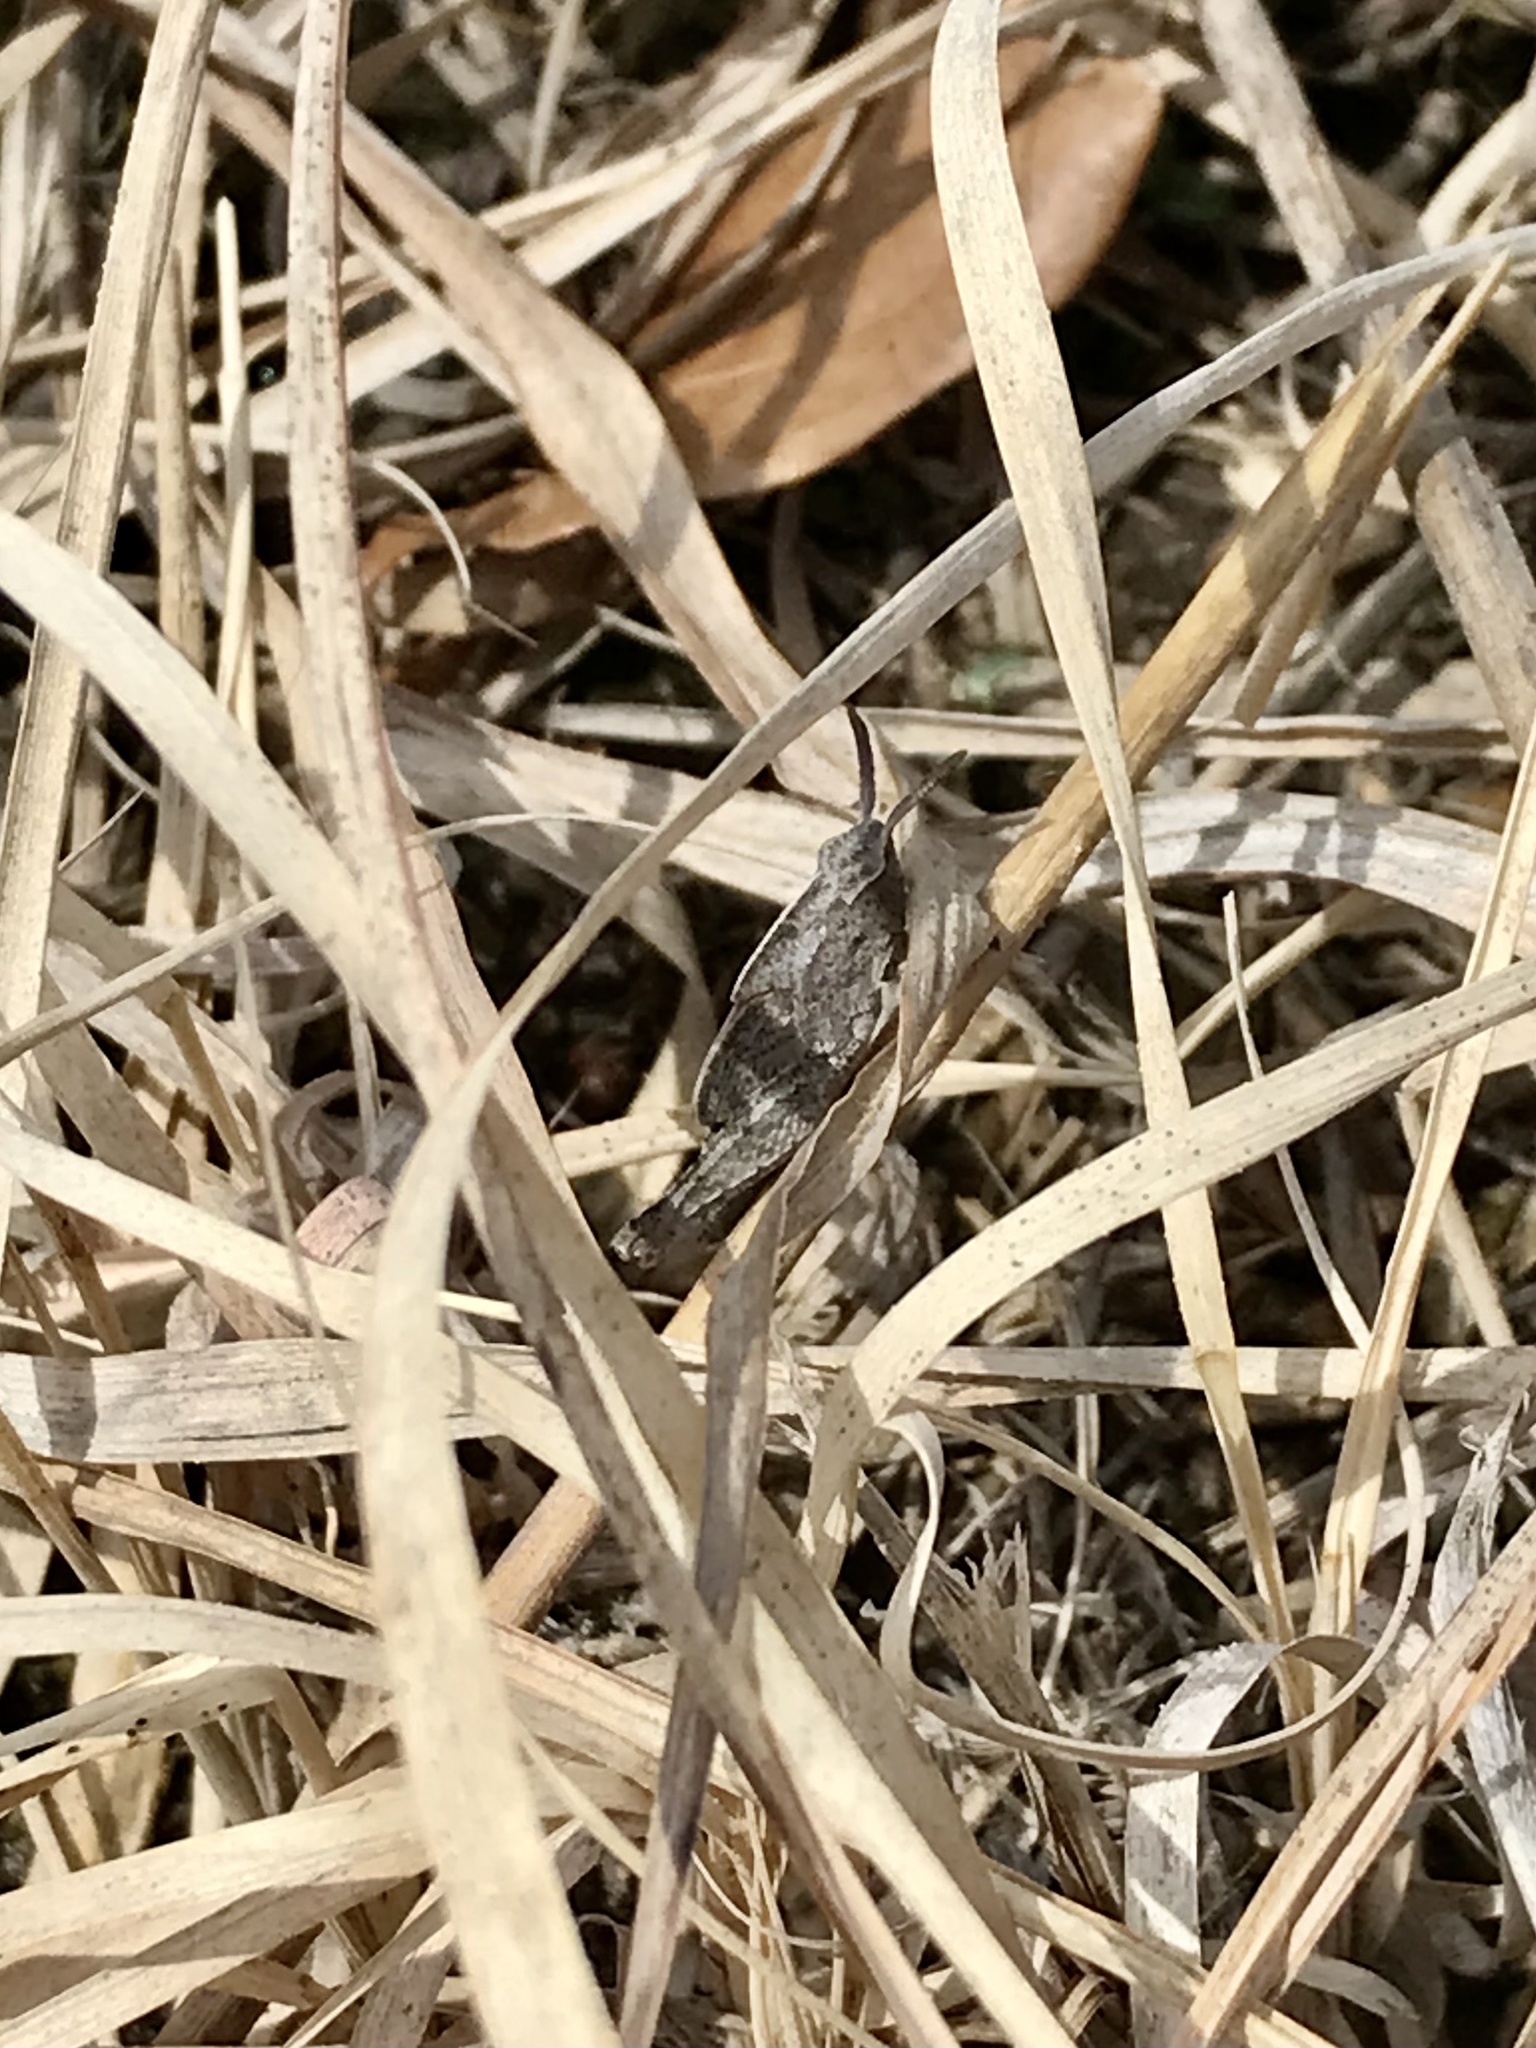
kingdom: Animalia
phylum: Arthropoda
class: Insecta
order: Orthoptera
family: Acrididae
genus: Chortophaga
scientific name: Chortophaga viridifasciata
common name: Green-striped grasshopper
